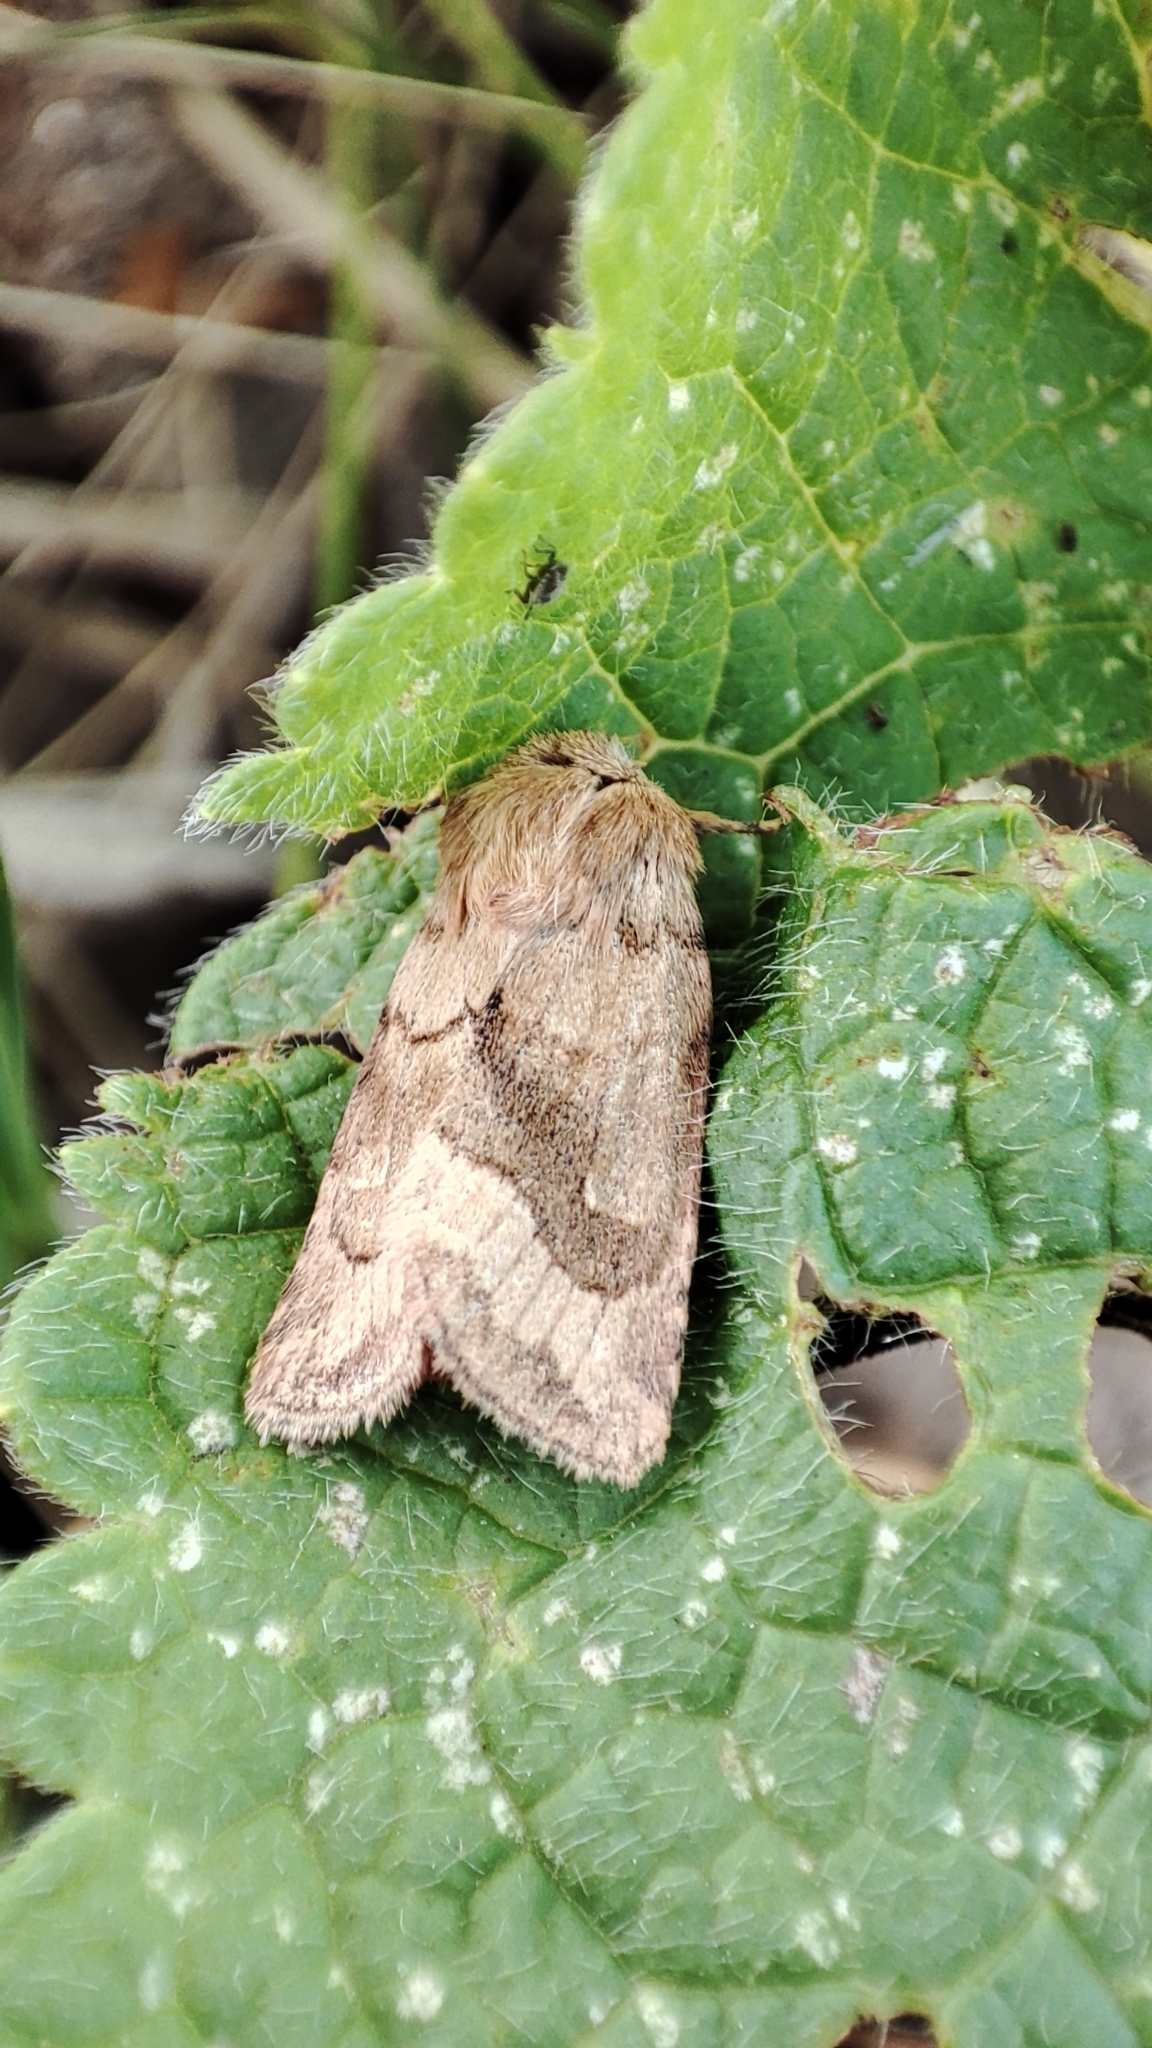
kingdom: Animalia
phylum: Arthropoda
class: Insecta
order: Lepidoptera
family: Noctuidae
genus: Lasionycta
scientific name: Lasionycta Eriopygodes imbecillus
